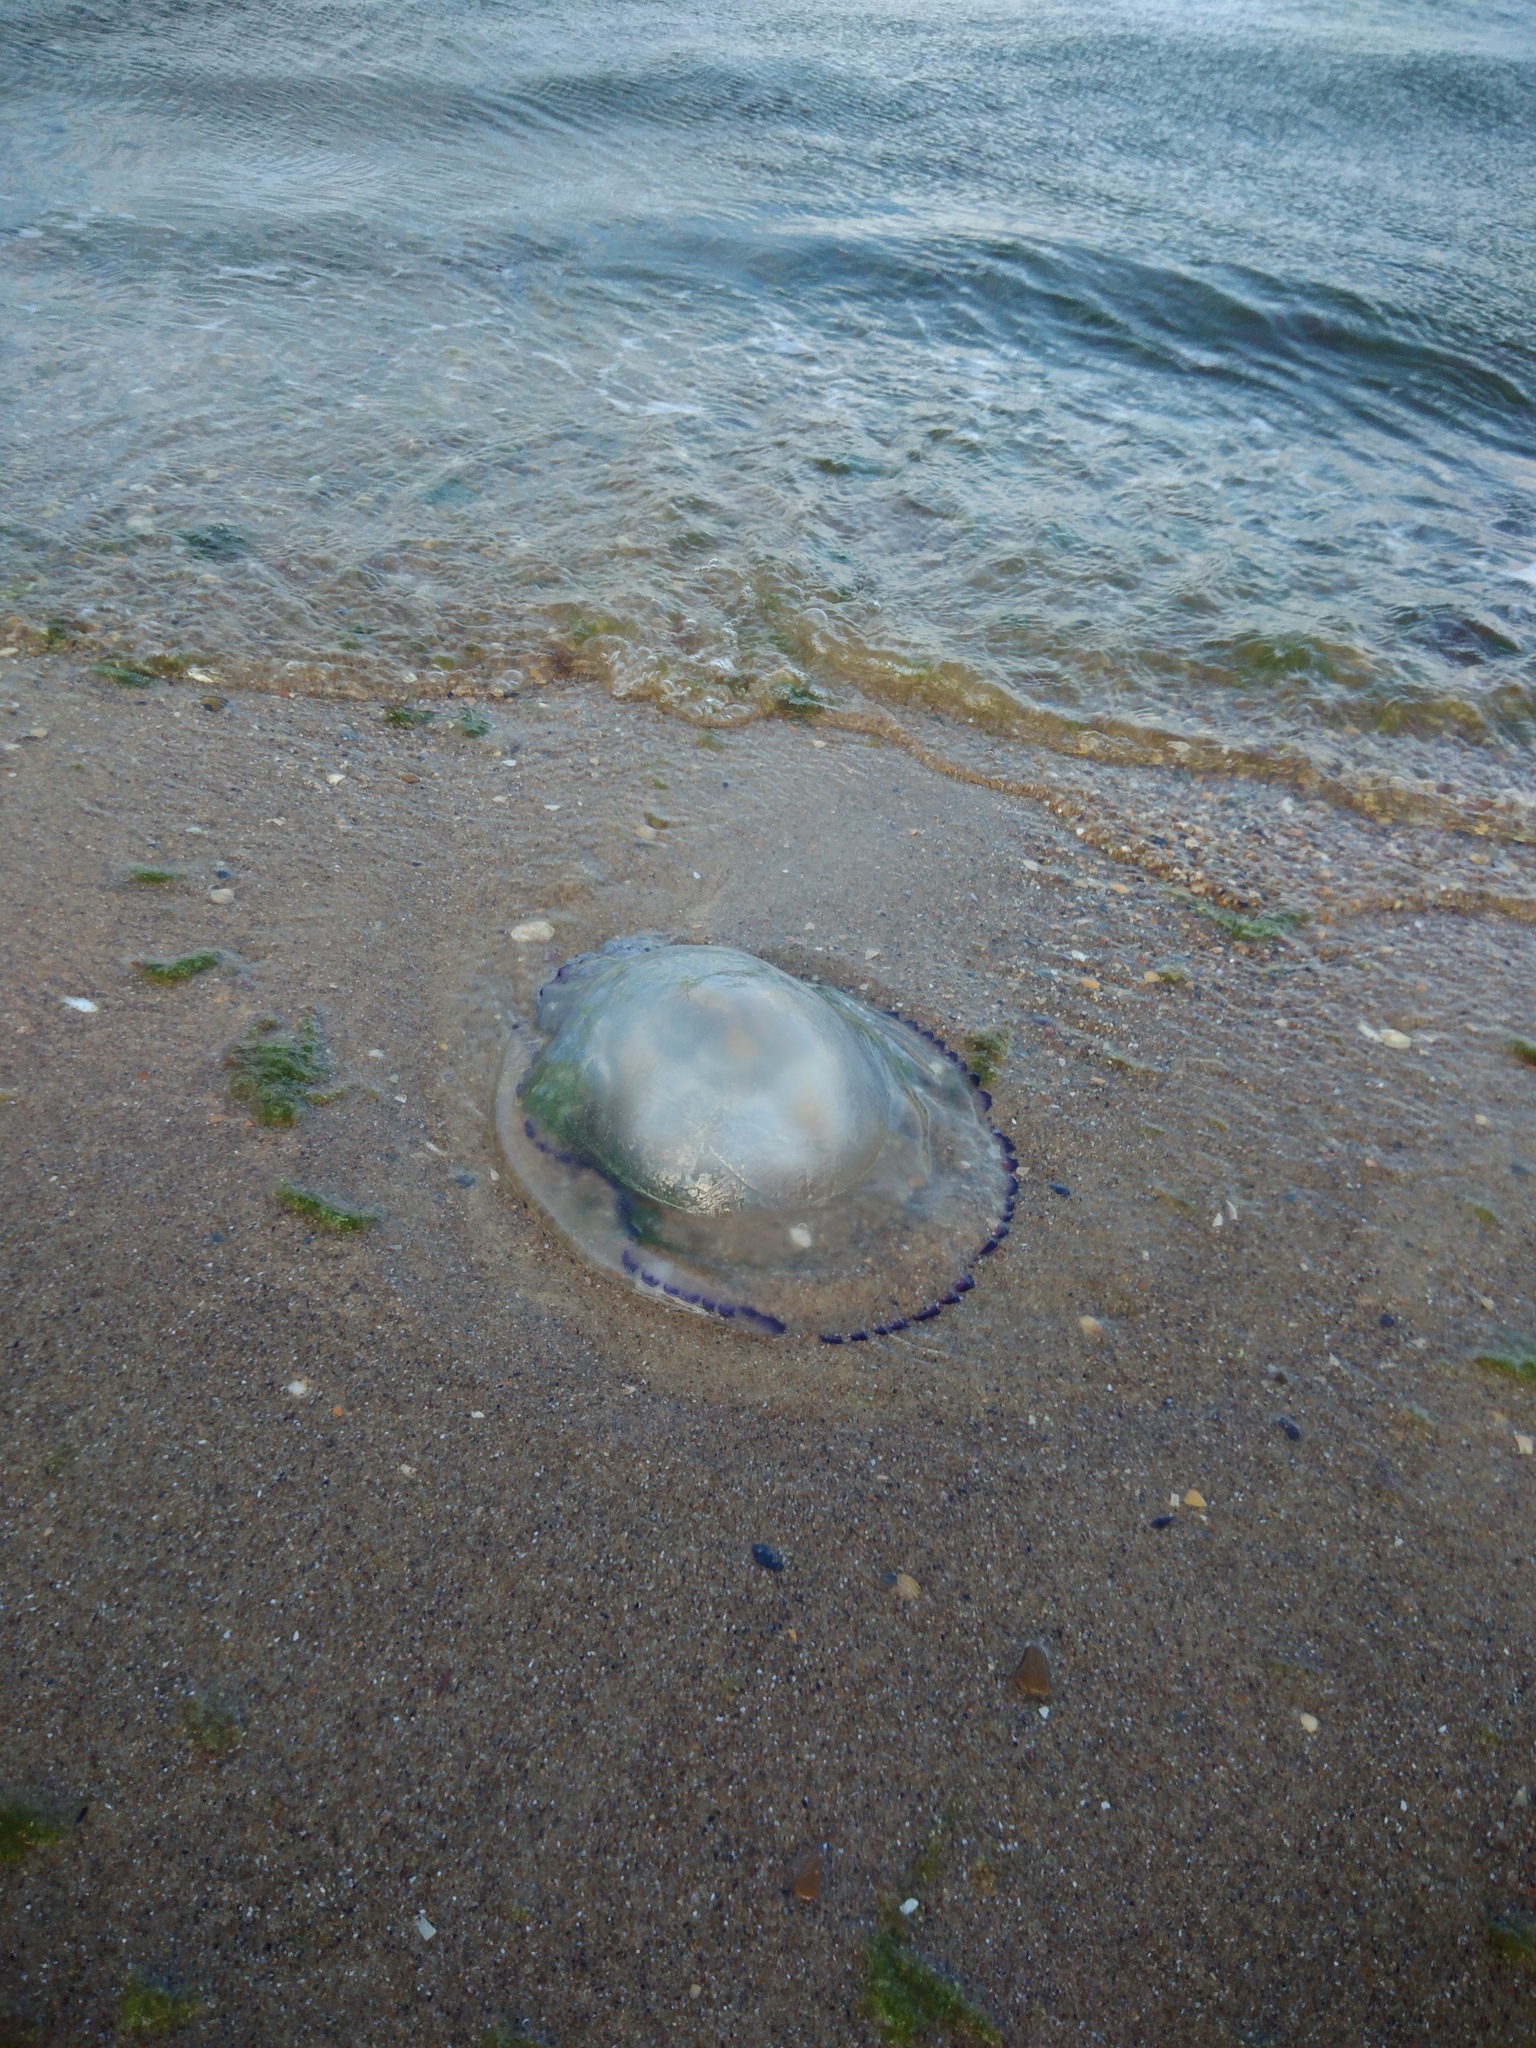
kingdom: Animalia
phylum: Cnidaria
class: Scyphozoa
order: Rhizostomeae
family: Rhizostomatidae
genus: Rhizostoma
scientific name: Rhizostoma pulmo
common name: Barrel jellyfish
